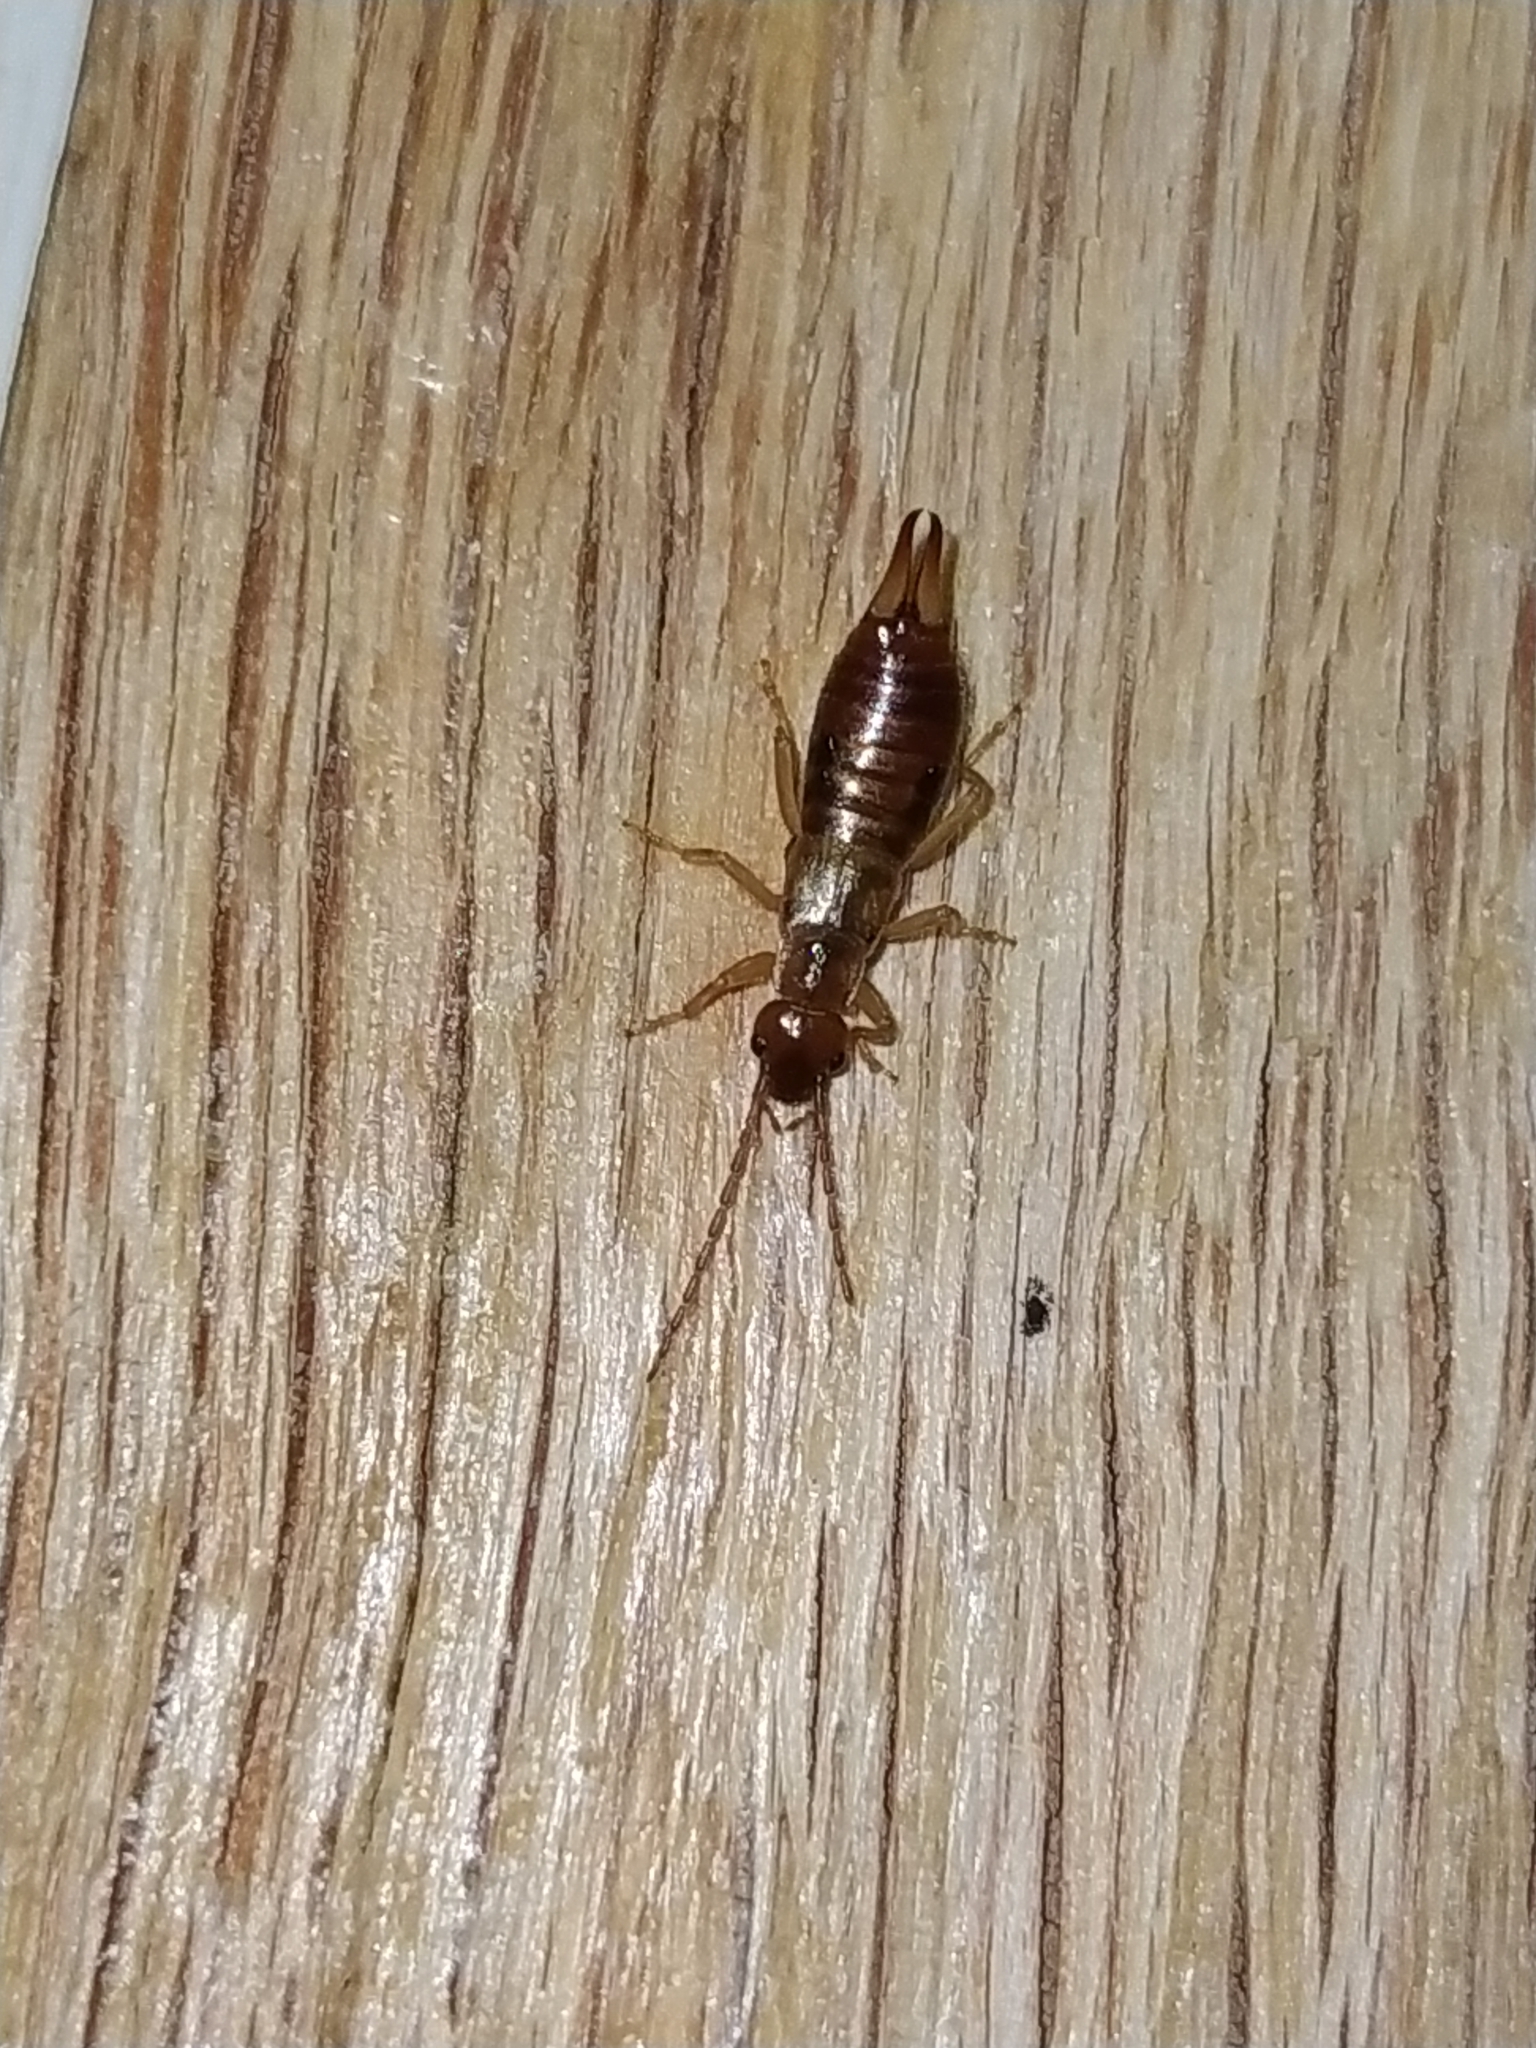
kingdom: Animalia
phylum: Arthropoda
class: Insecta
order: Dermaptera
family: Forficulidae
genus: Apterygida
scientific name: Apterygida albipennis
